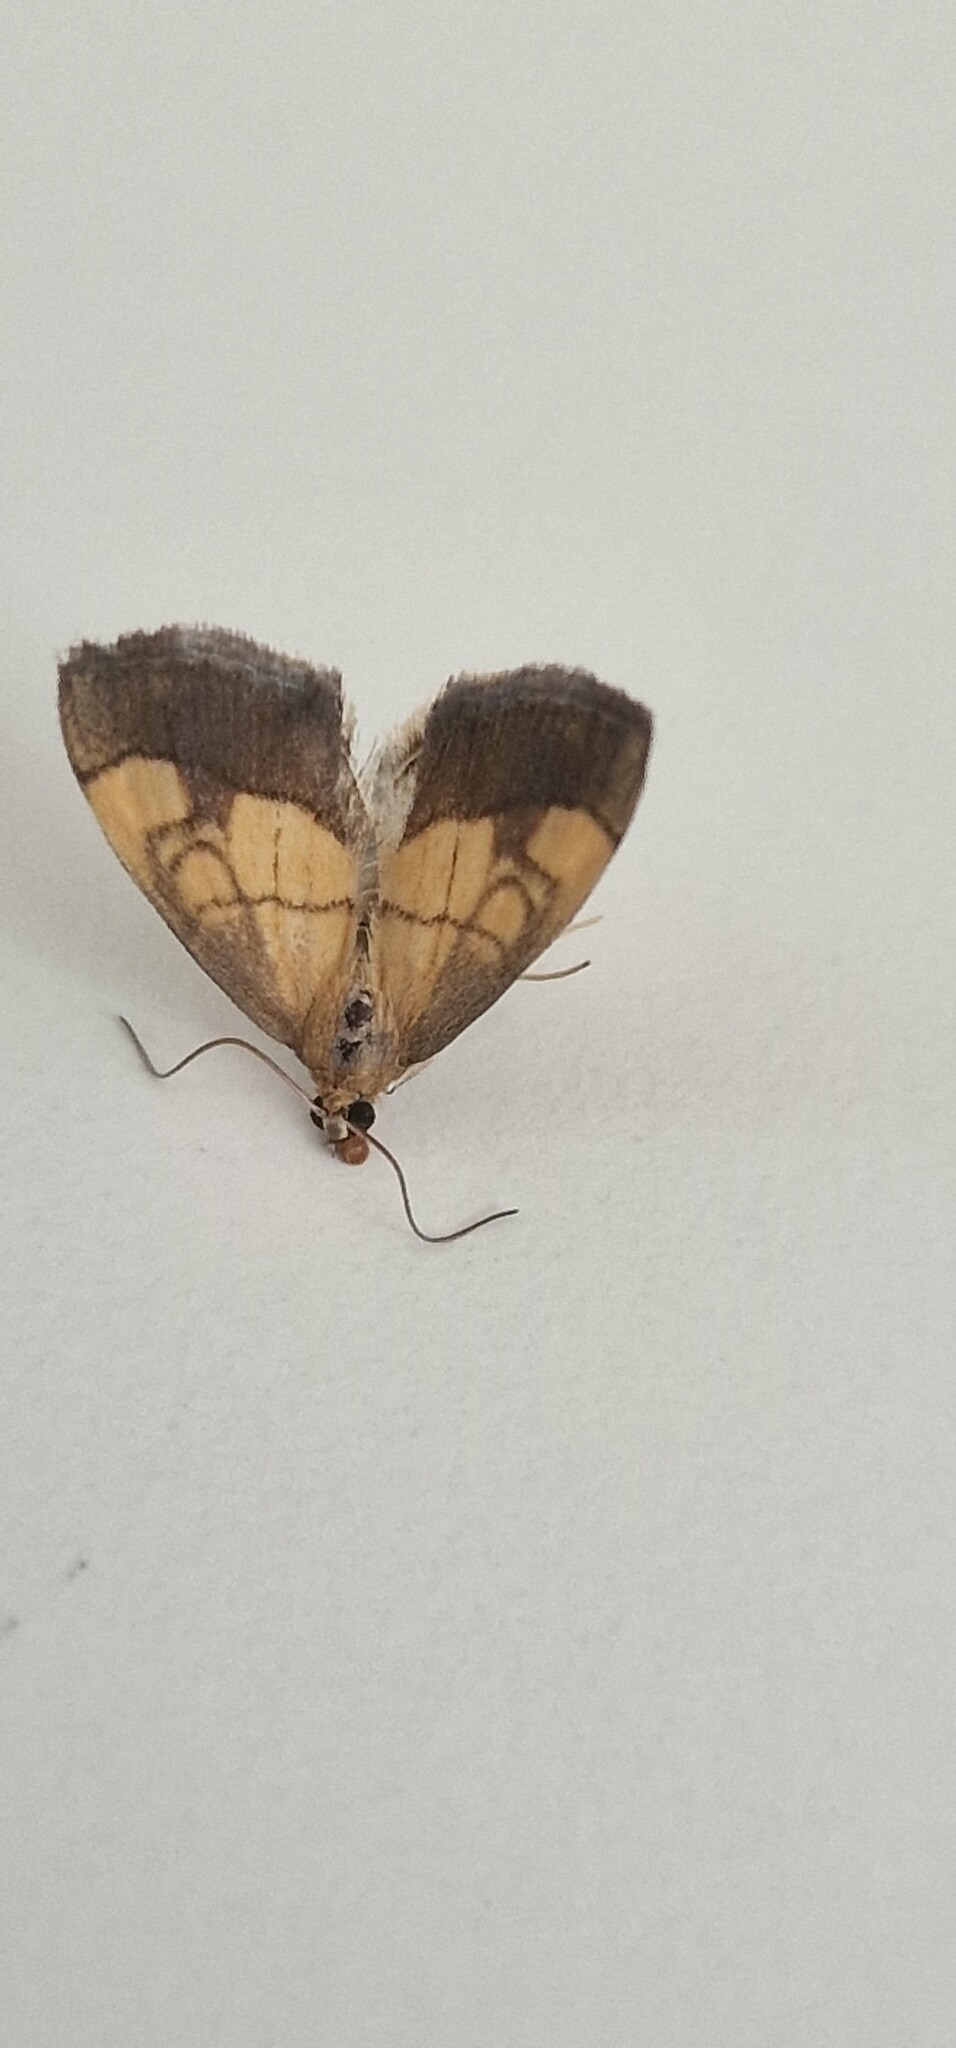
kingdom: Animalia
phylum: Arthropoda
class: Insecta
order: Lepidoptera
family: Crambidae
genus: Evergestis
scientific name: Evergestis limbata
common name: Dark bordered pearl
